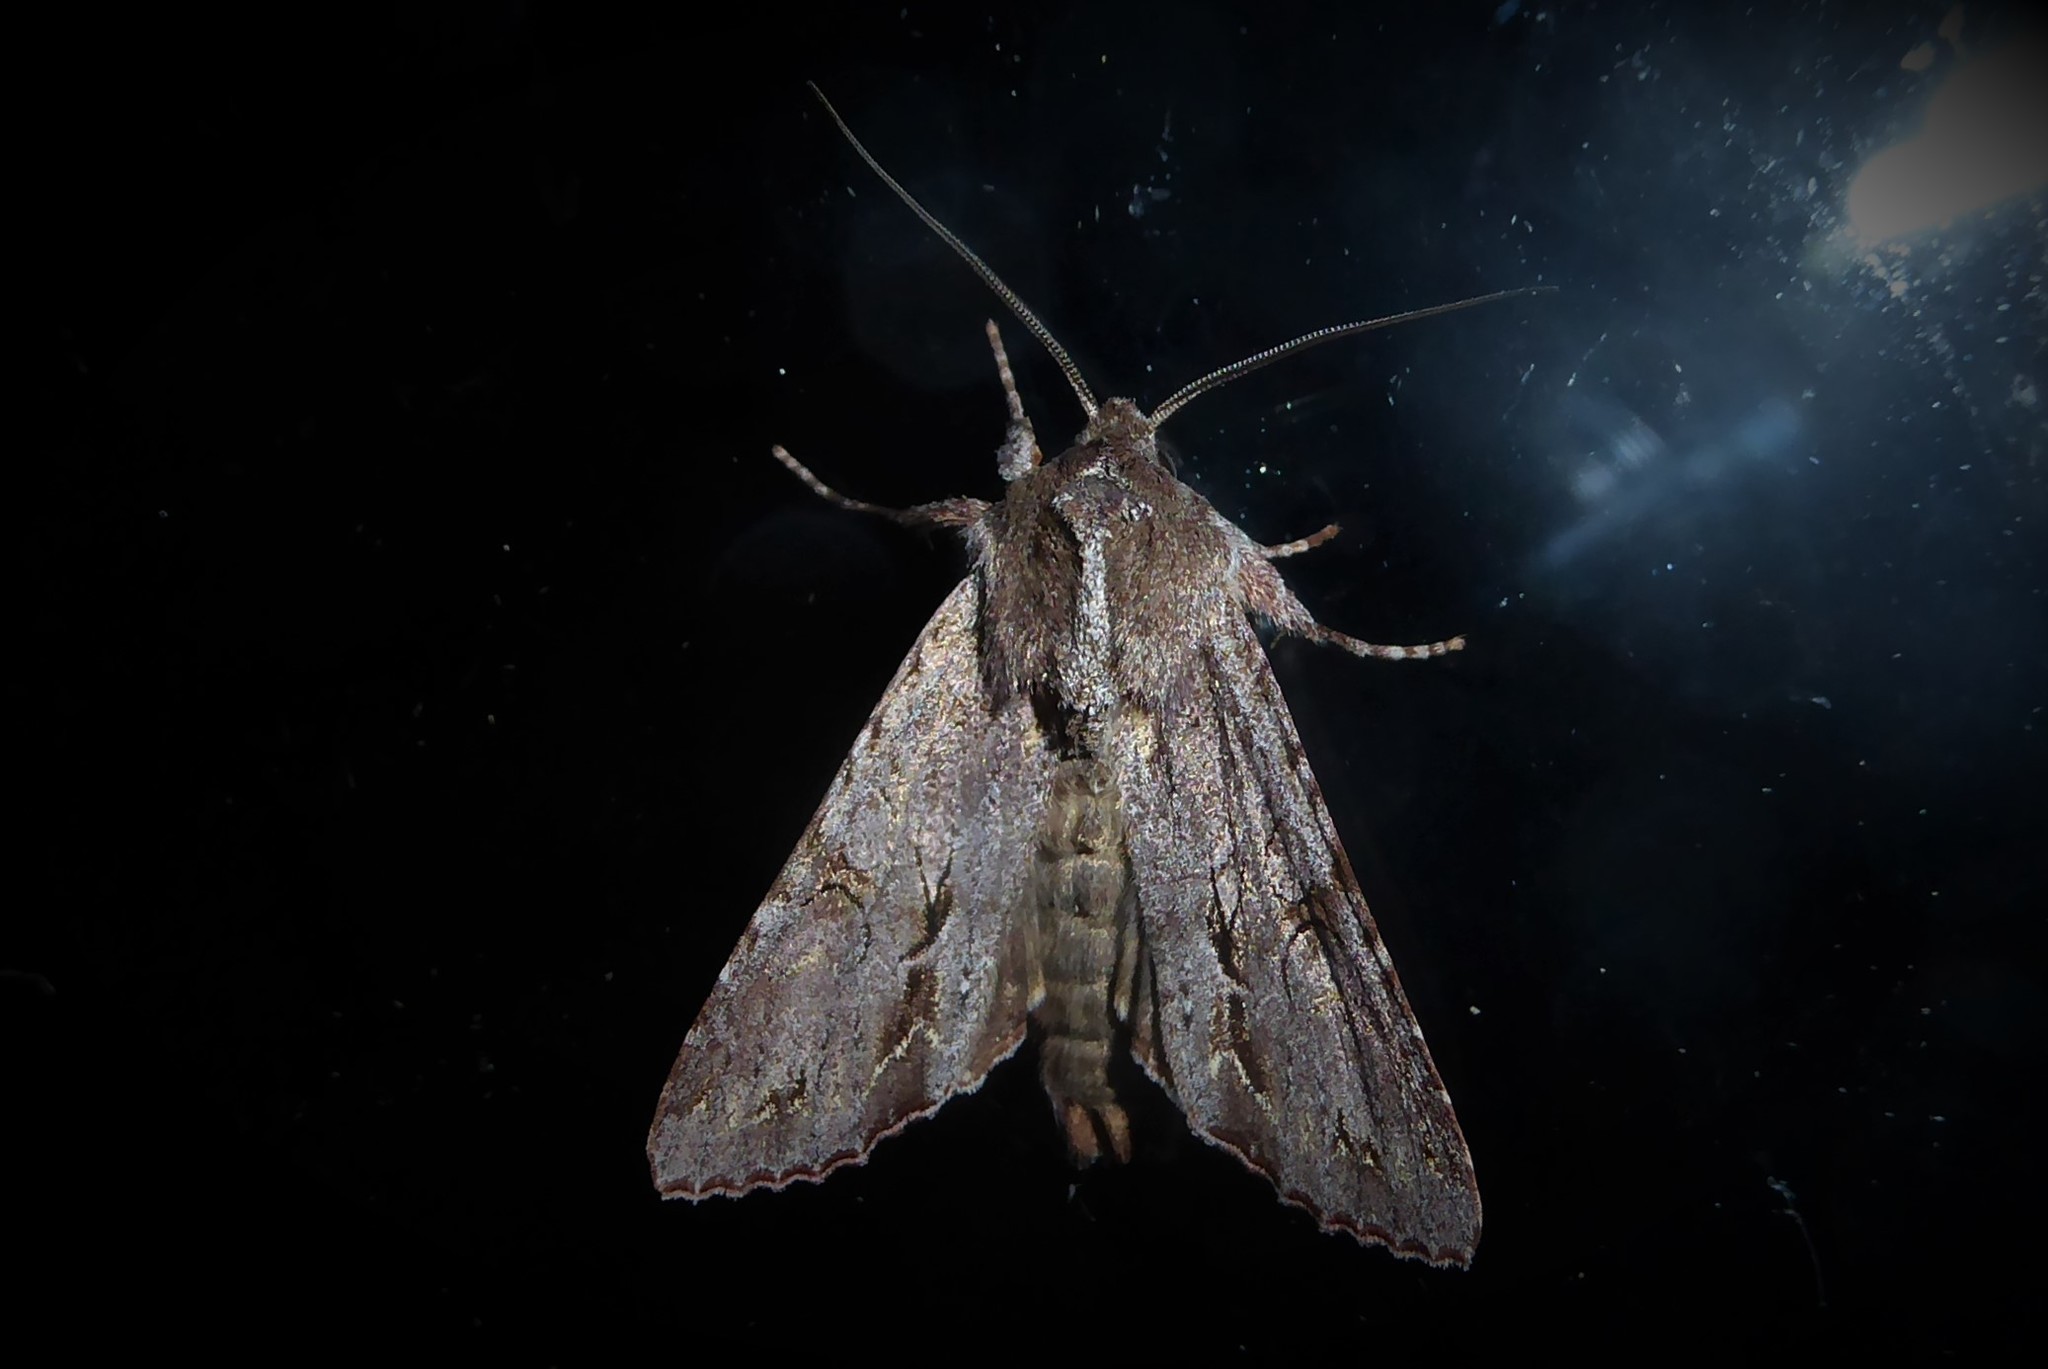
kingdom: Animalia
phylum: Arthropoda
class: Insecta
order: Lepidoptera
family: Noctuidae
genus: Ichneutica
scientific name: Ichneutica
